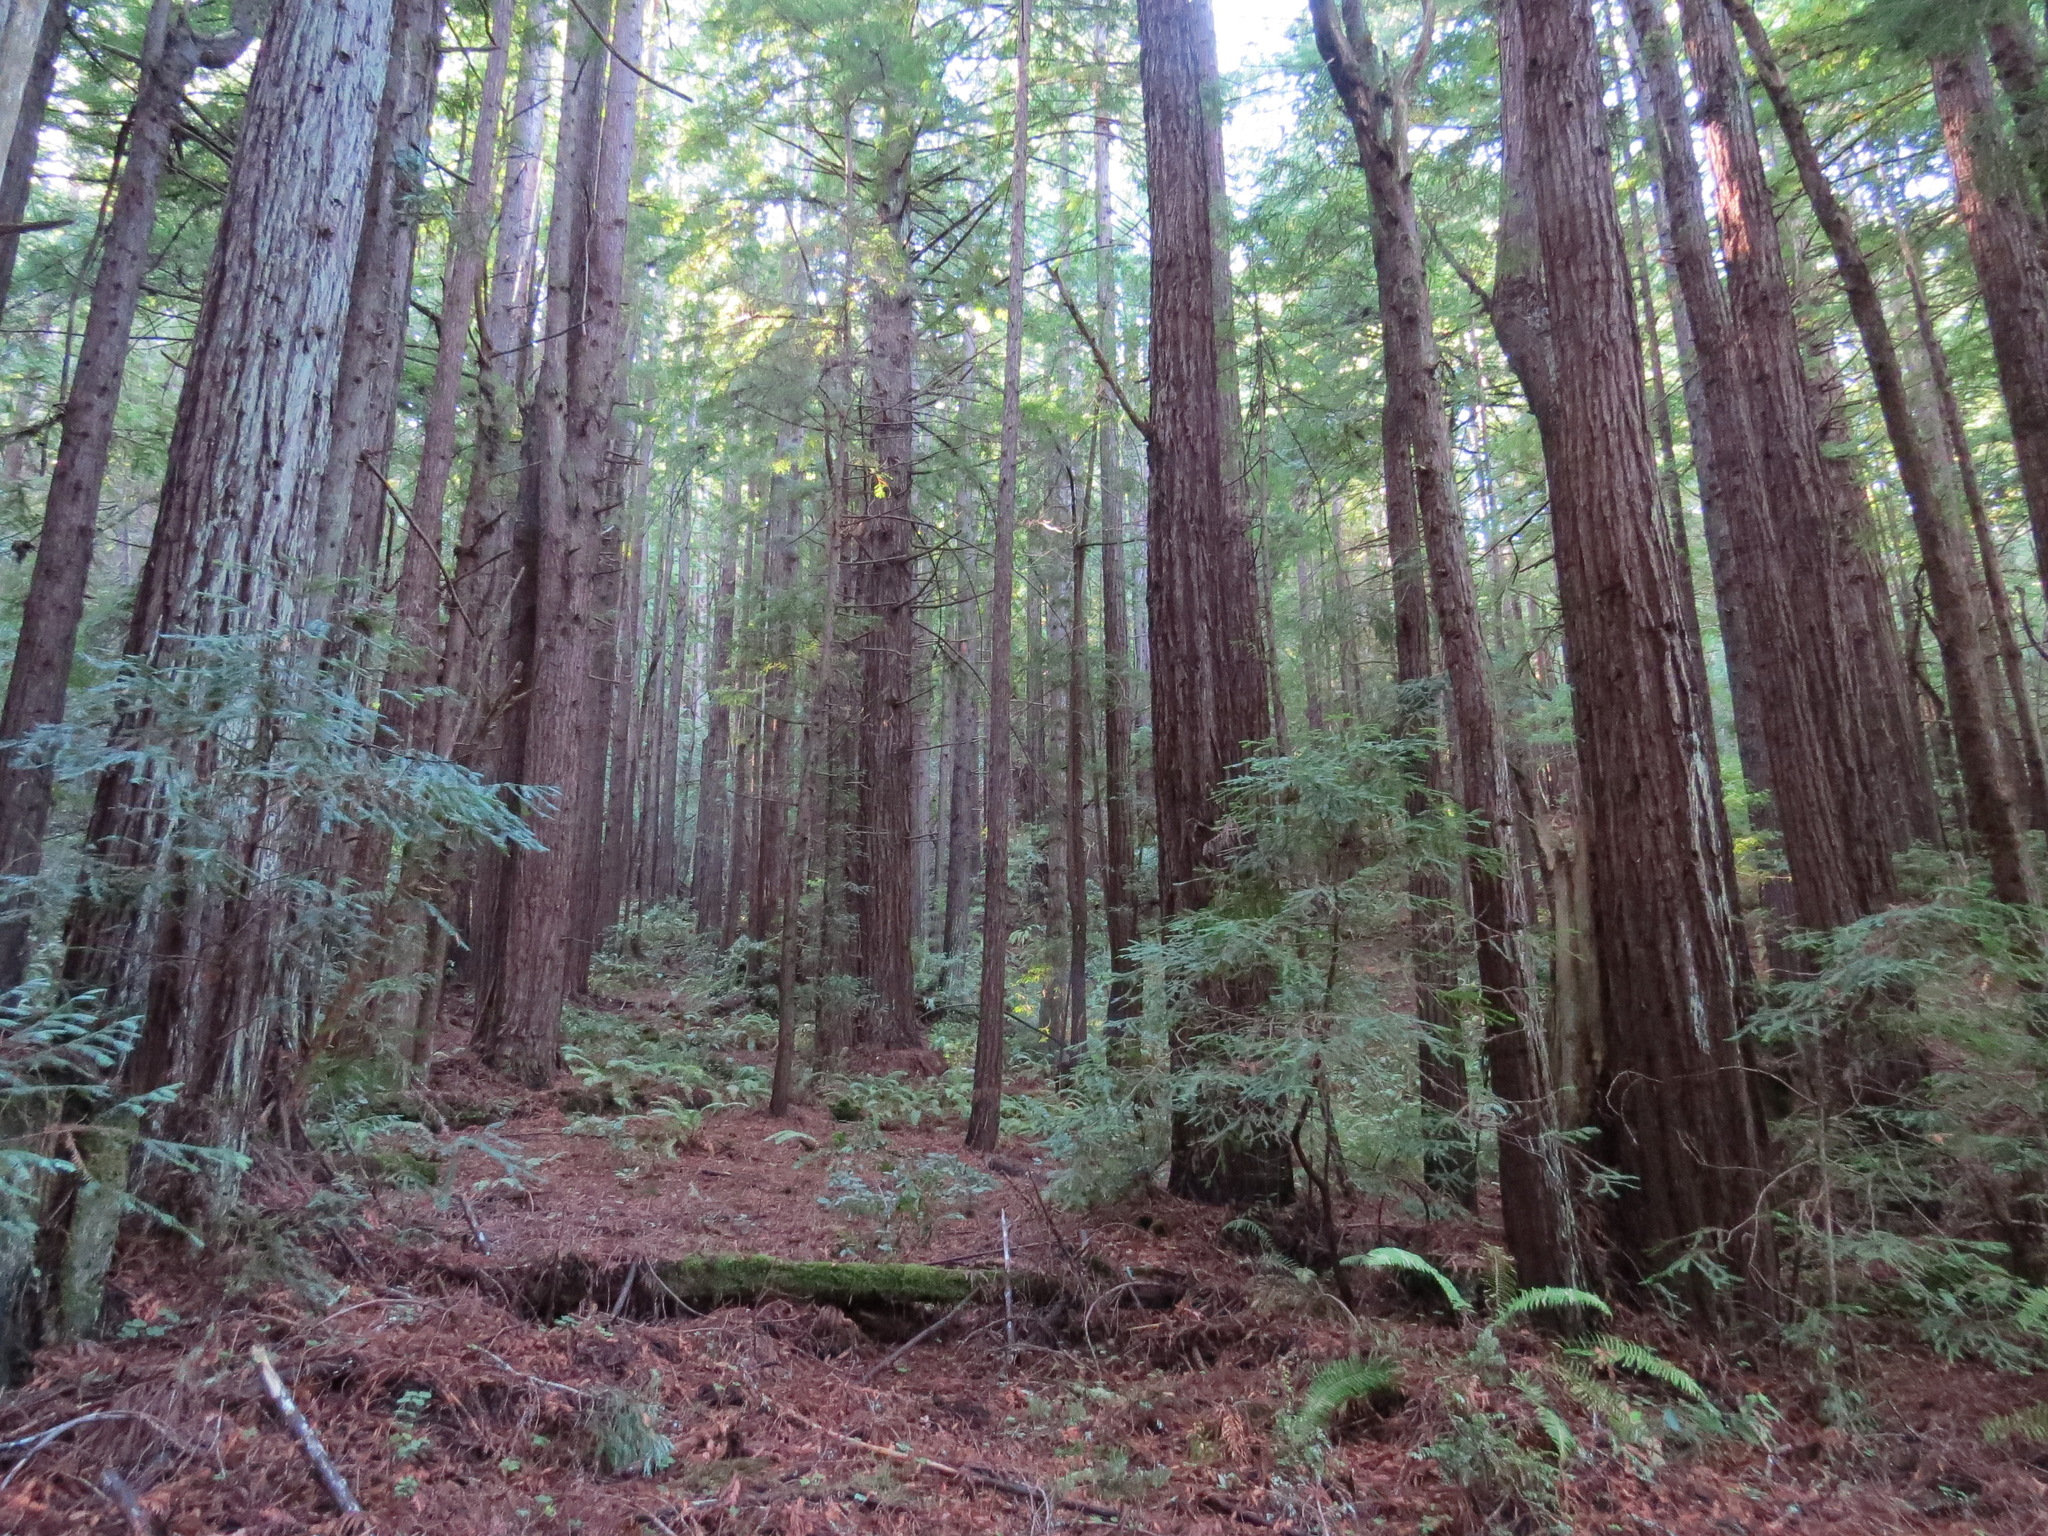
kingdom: Plantae
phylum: Tracheophyta
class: Pinopsida
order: Pinales
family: Cupressaceae
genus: Sequoia
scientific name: Sequoia sempervirens
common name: Coast redwood
